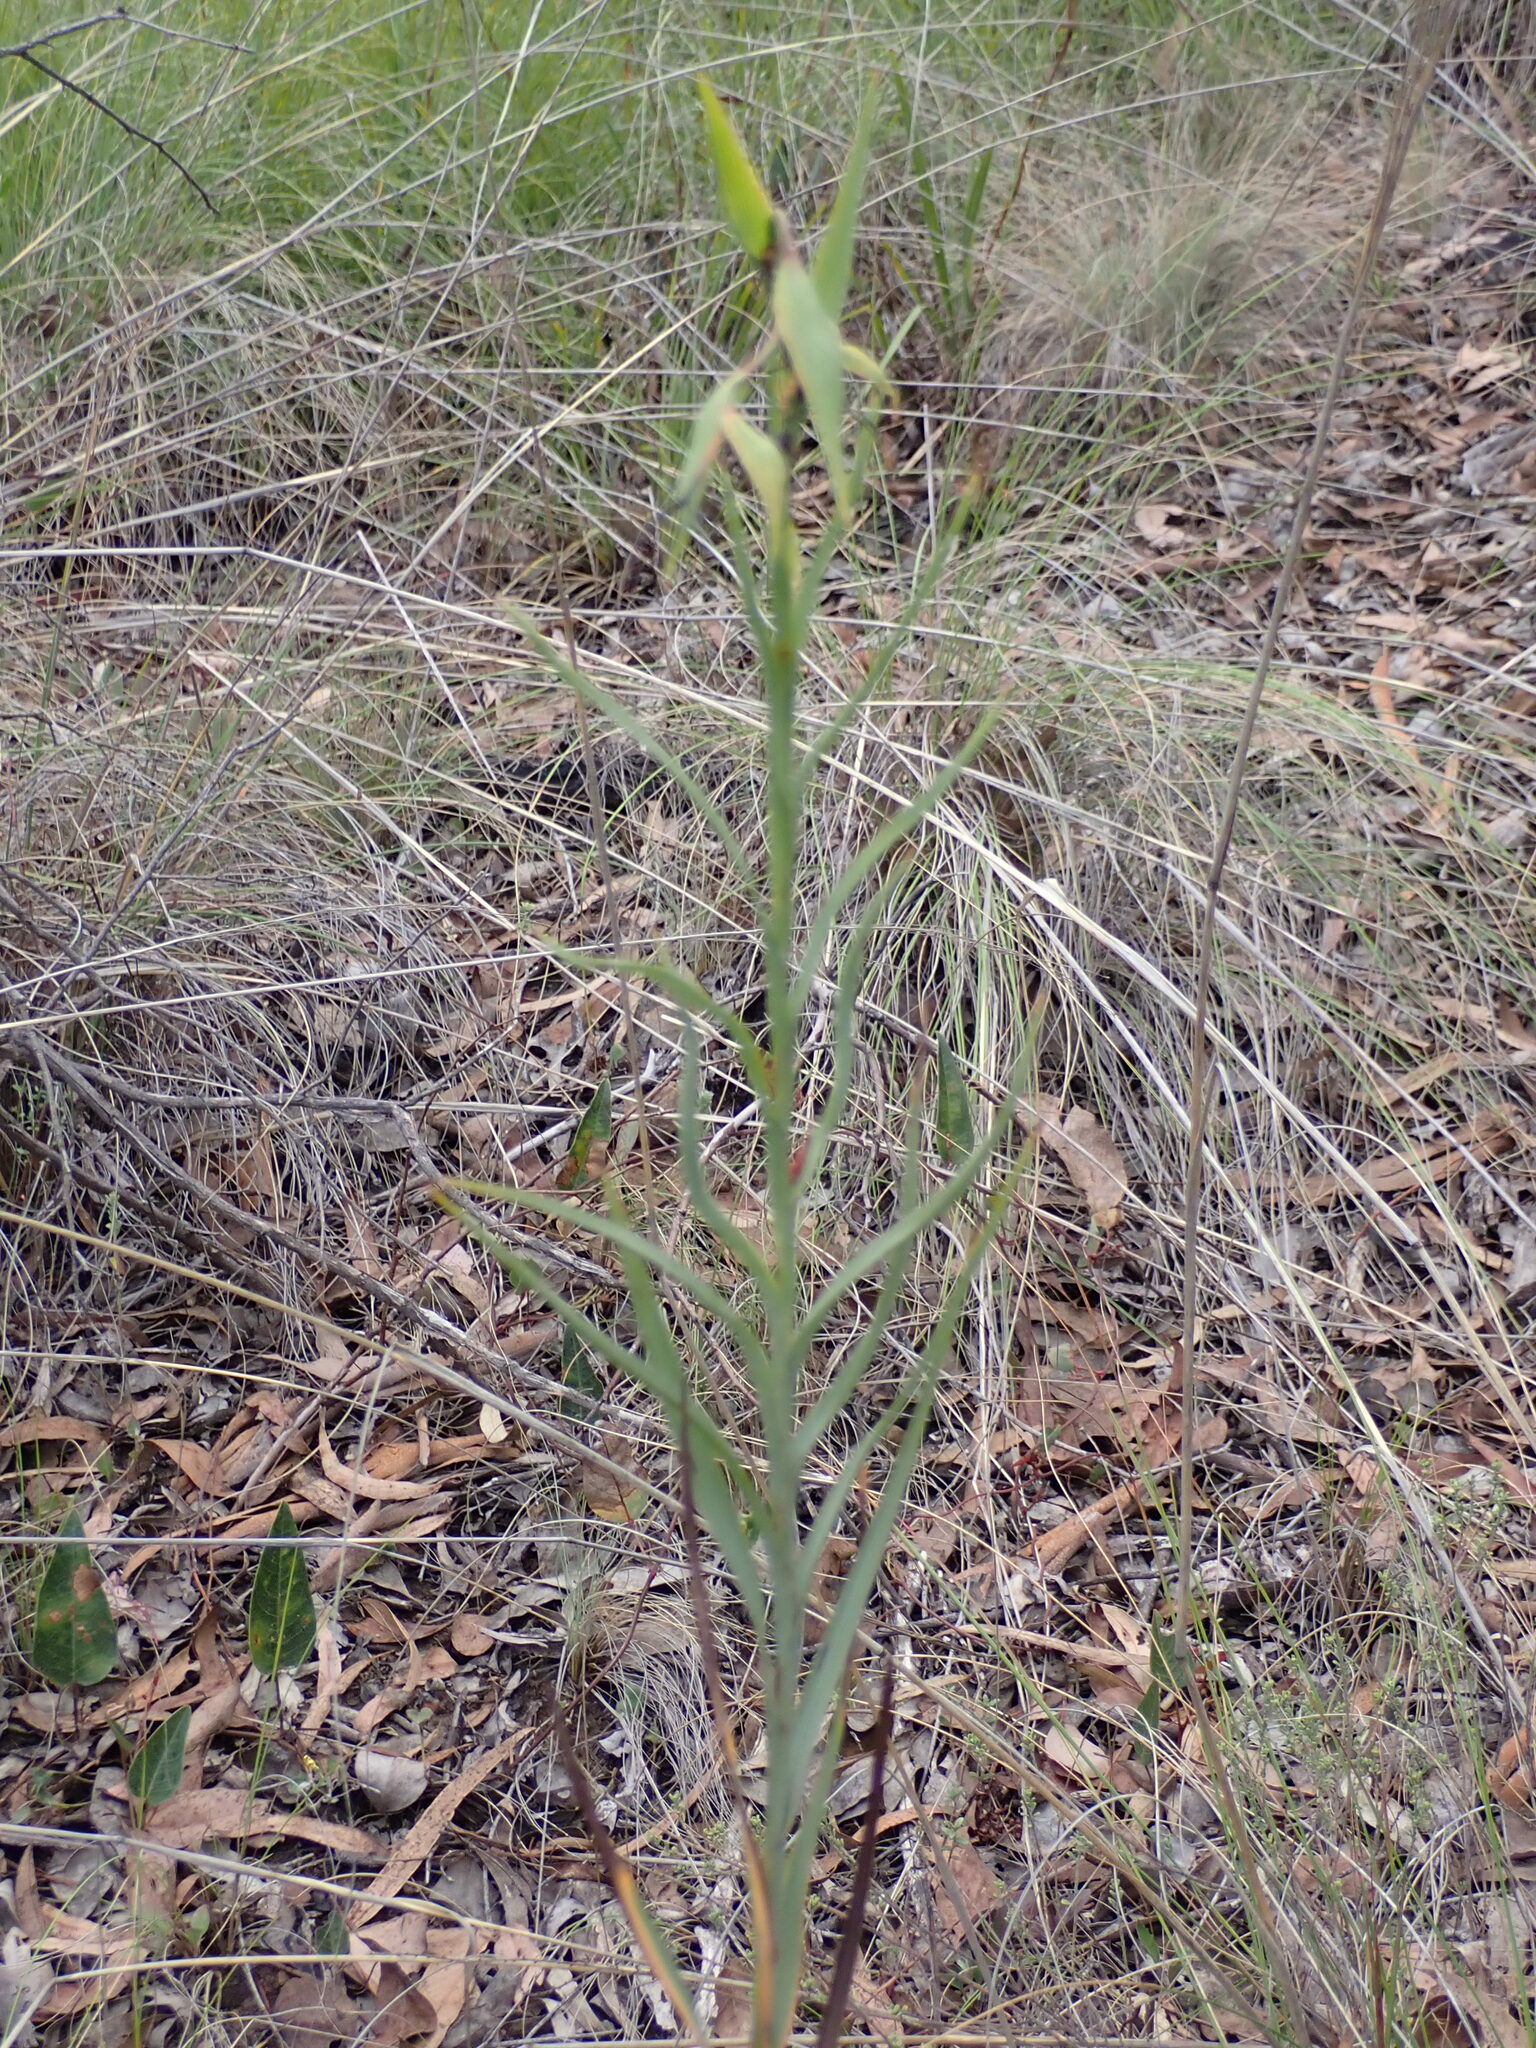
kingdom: Plantae
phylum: Tracheophyta
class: Liliopsida
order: Asparagales
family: Asphodelaceae
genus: Stypandra
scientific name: Stypandra glauca
